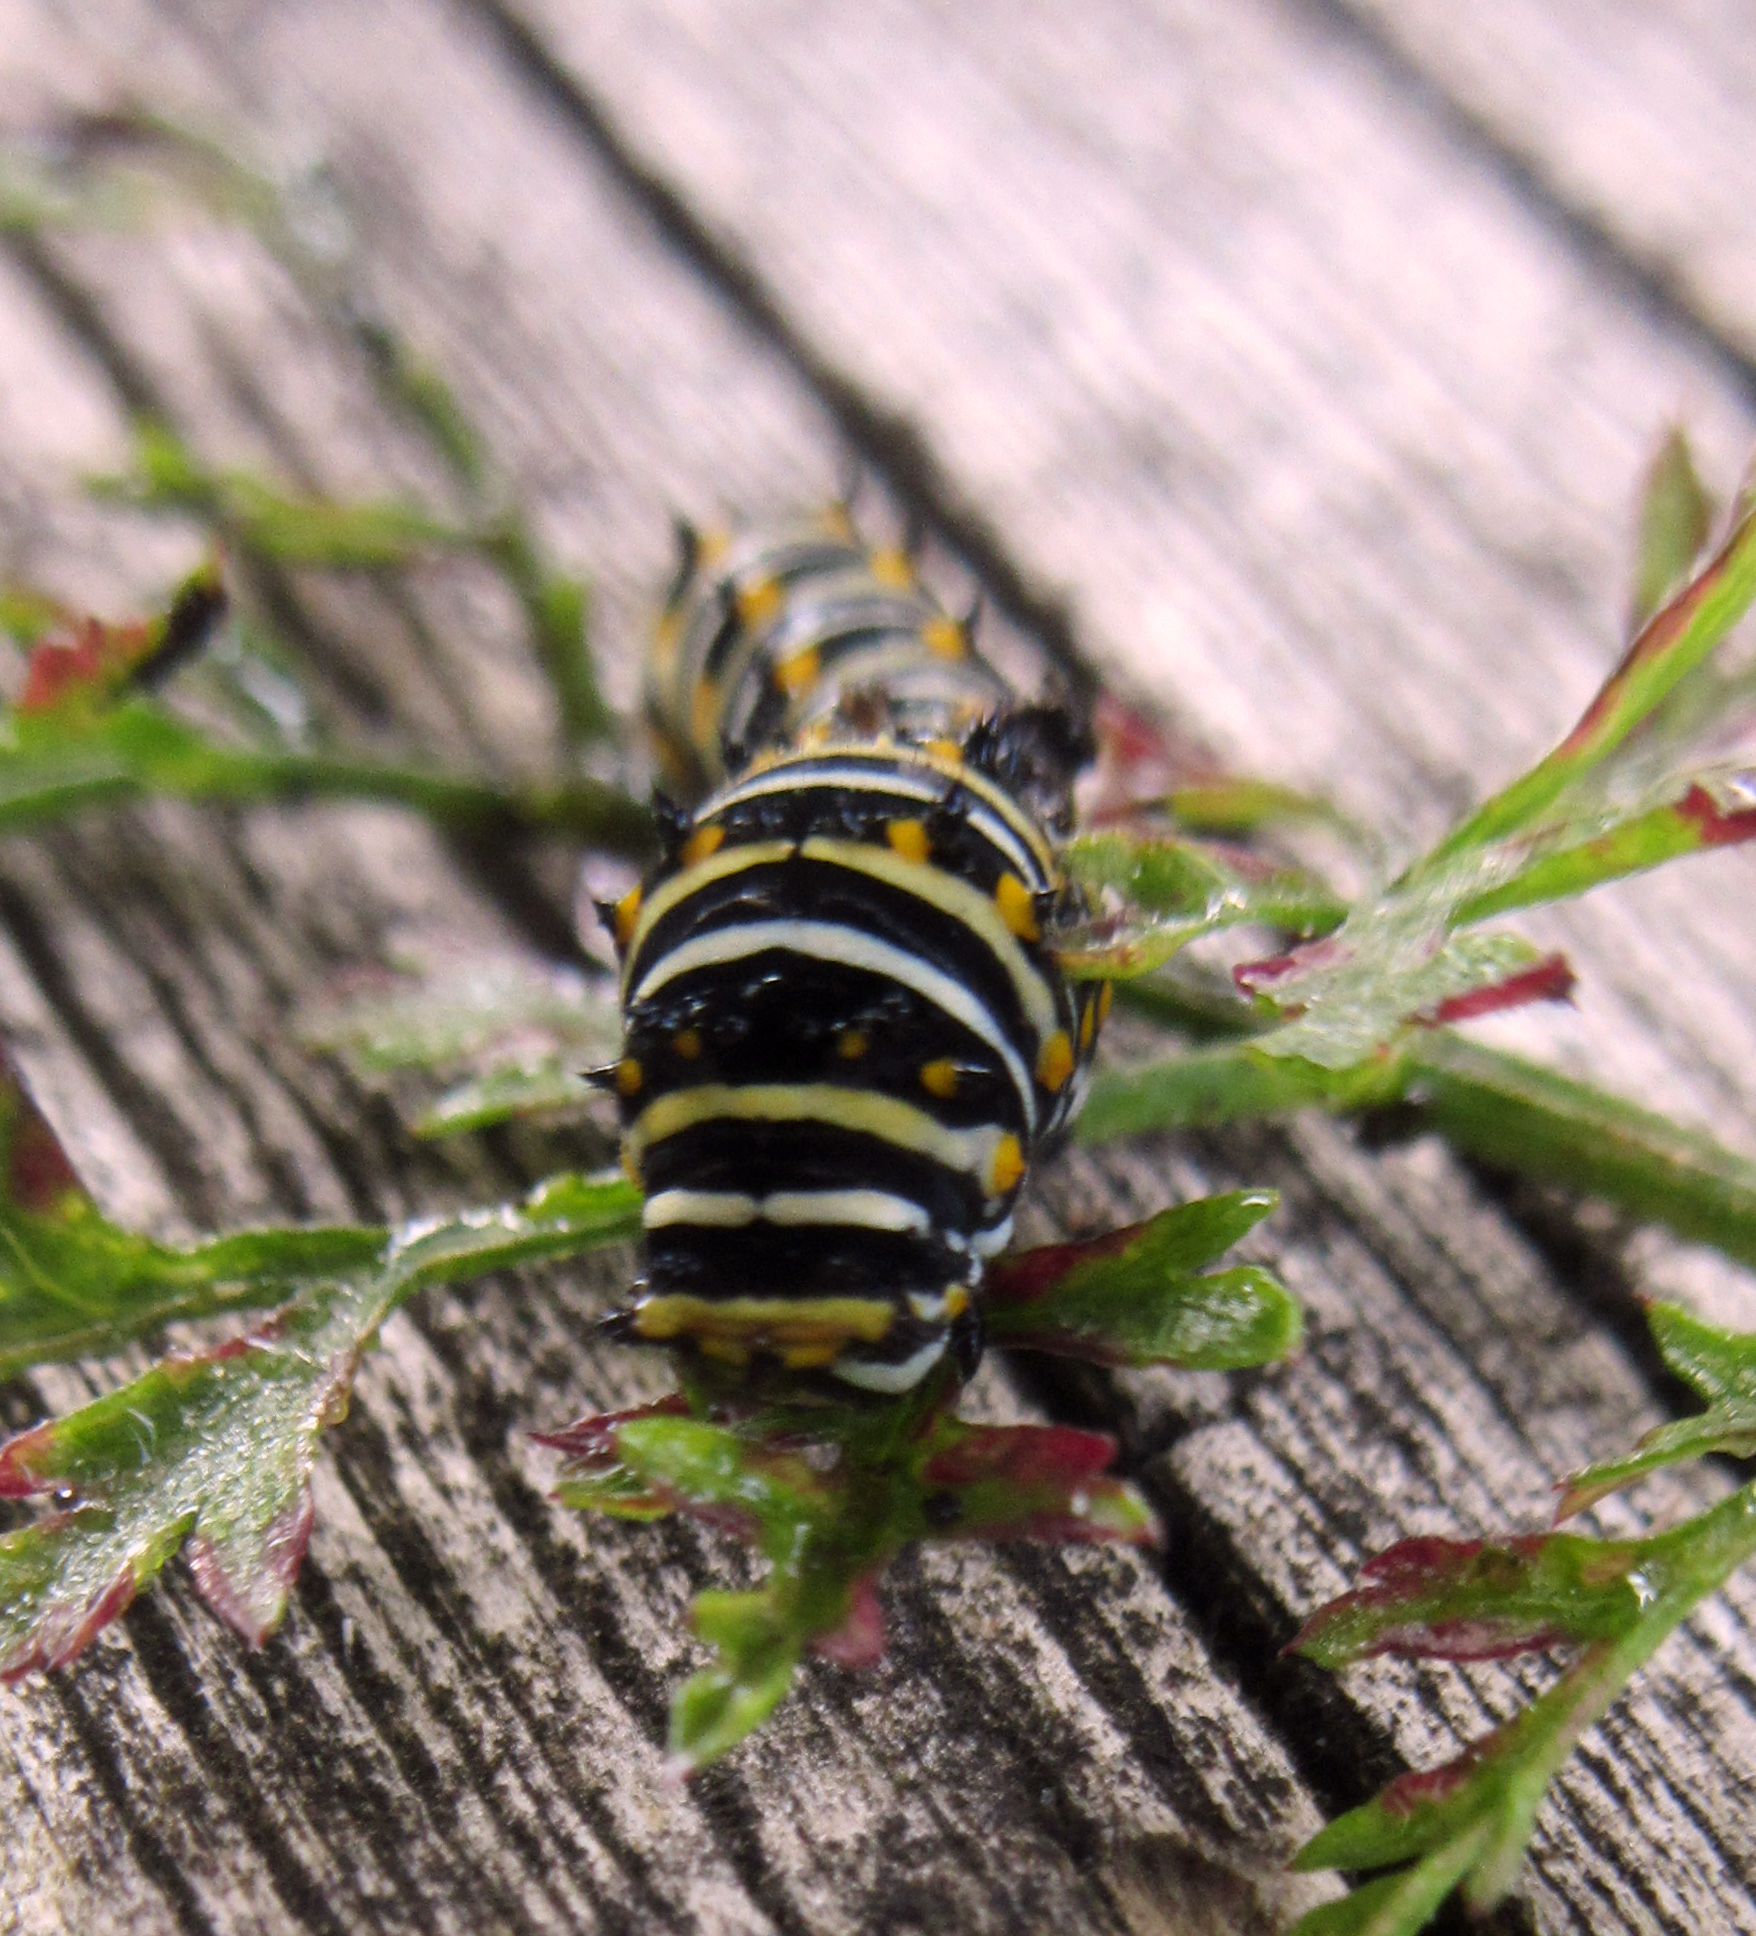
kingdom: Animalia
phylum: Arthropoda
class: Insecta
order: Lepidoptera
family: Papilionidae
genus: Papilio
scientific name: Papilio polyxenes
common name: Black swallowtail
